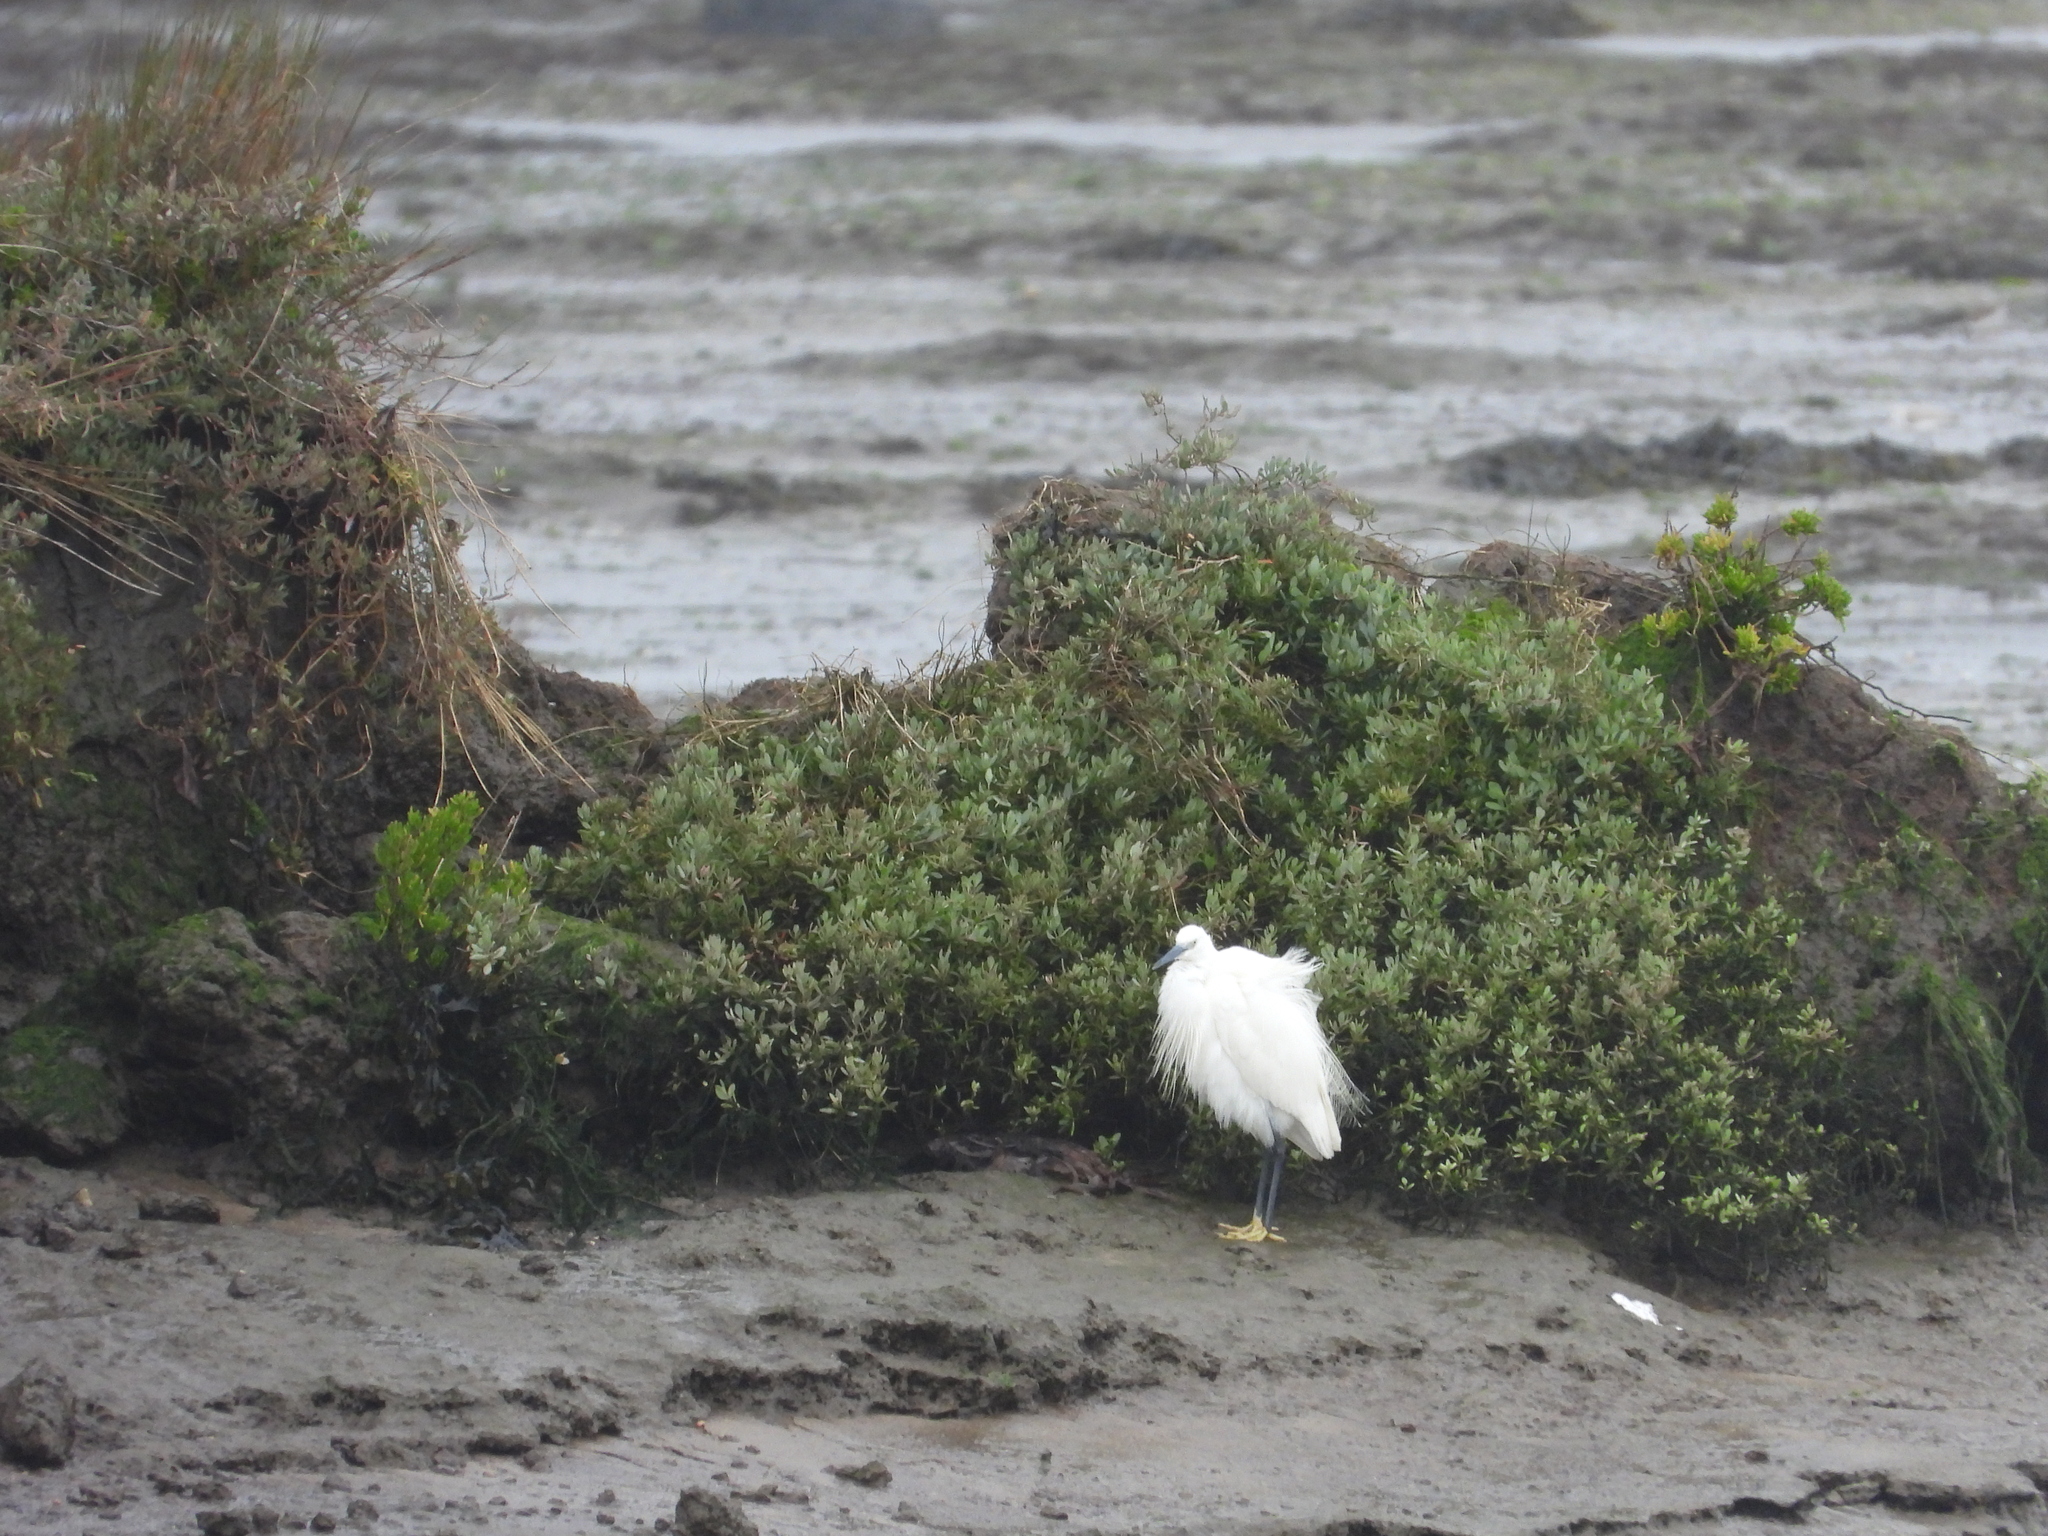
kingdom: Animalia
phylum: Chordata
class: Aves
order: Pelecaniformes
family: Ardeidae
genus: Egretta
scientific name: Egretta garzetta
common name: Little egret
